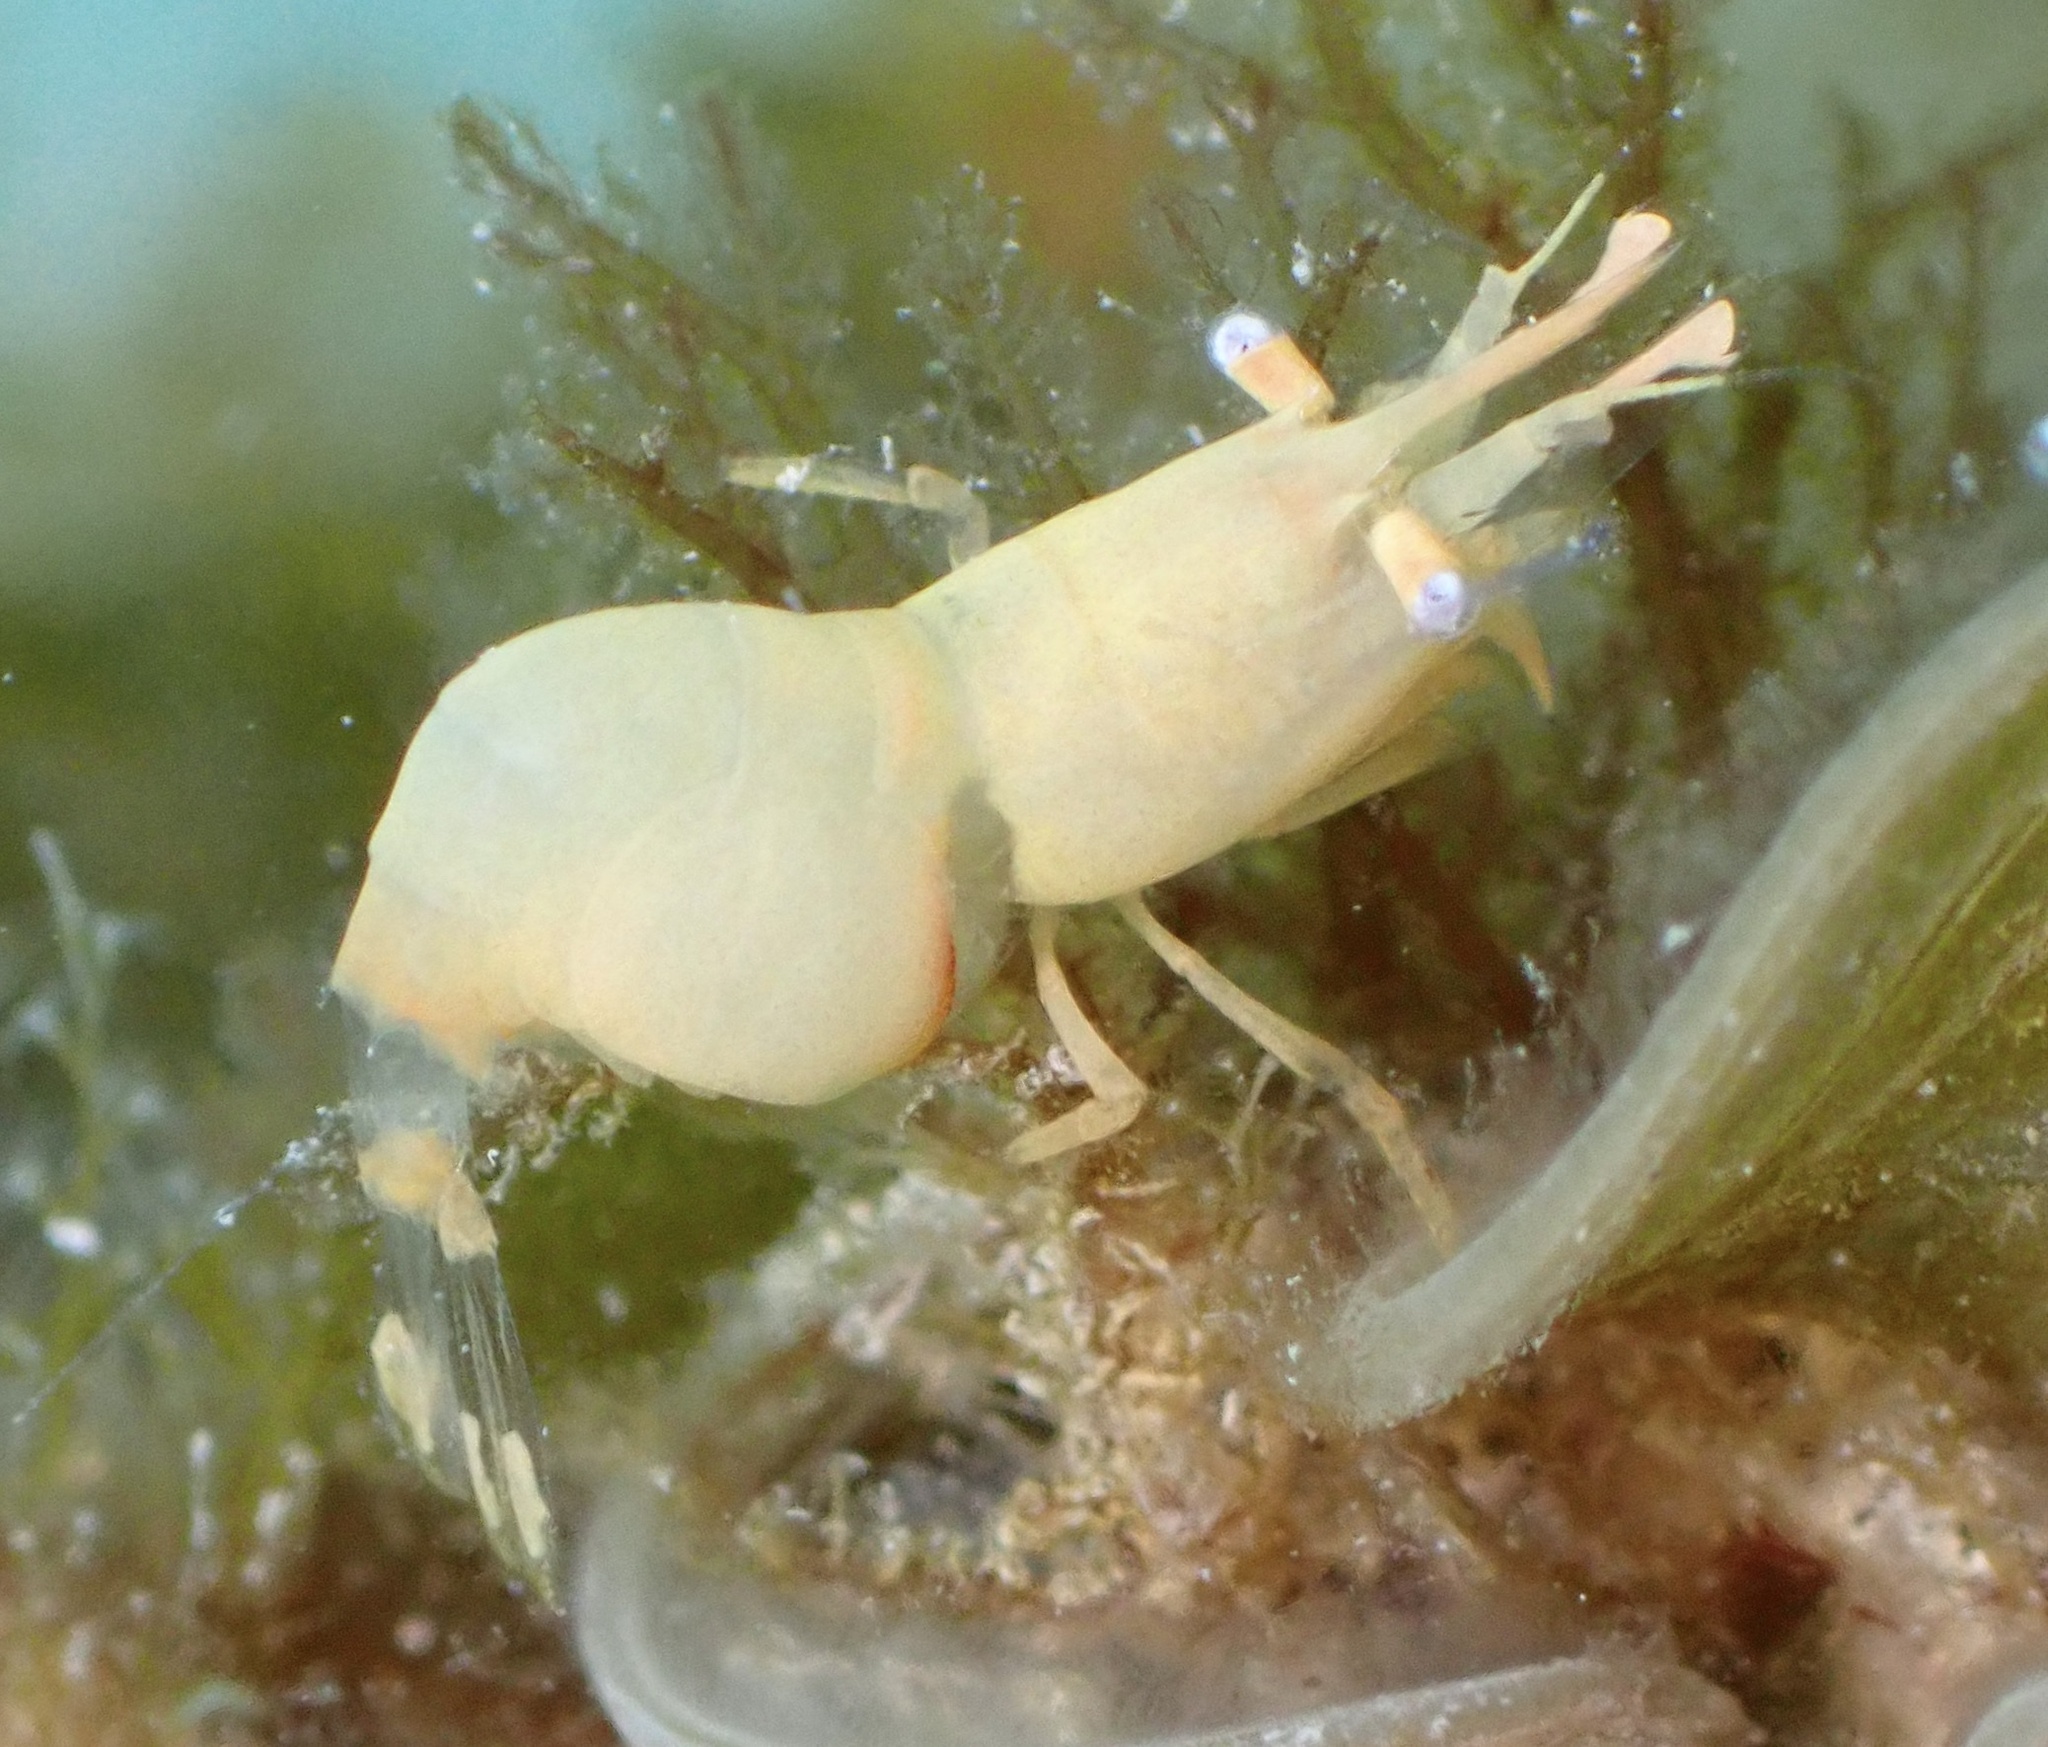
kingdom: Animalia
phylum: Arthropoda
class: Malacostraca
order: Decapoda
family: Hippolytidae
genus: Hippolyte
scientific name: Hippolyte coerulescens
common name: Cerulean sargassum shrimp
